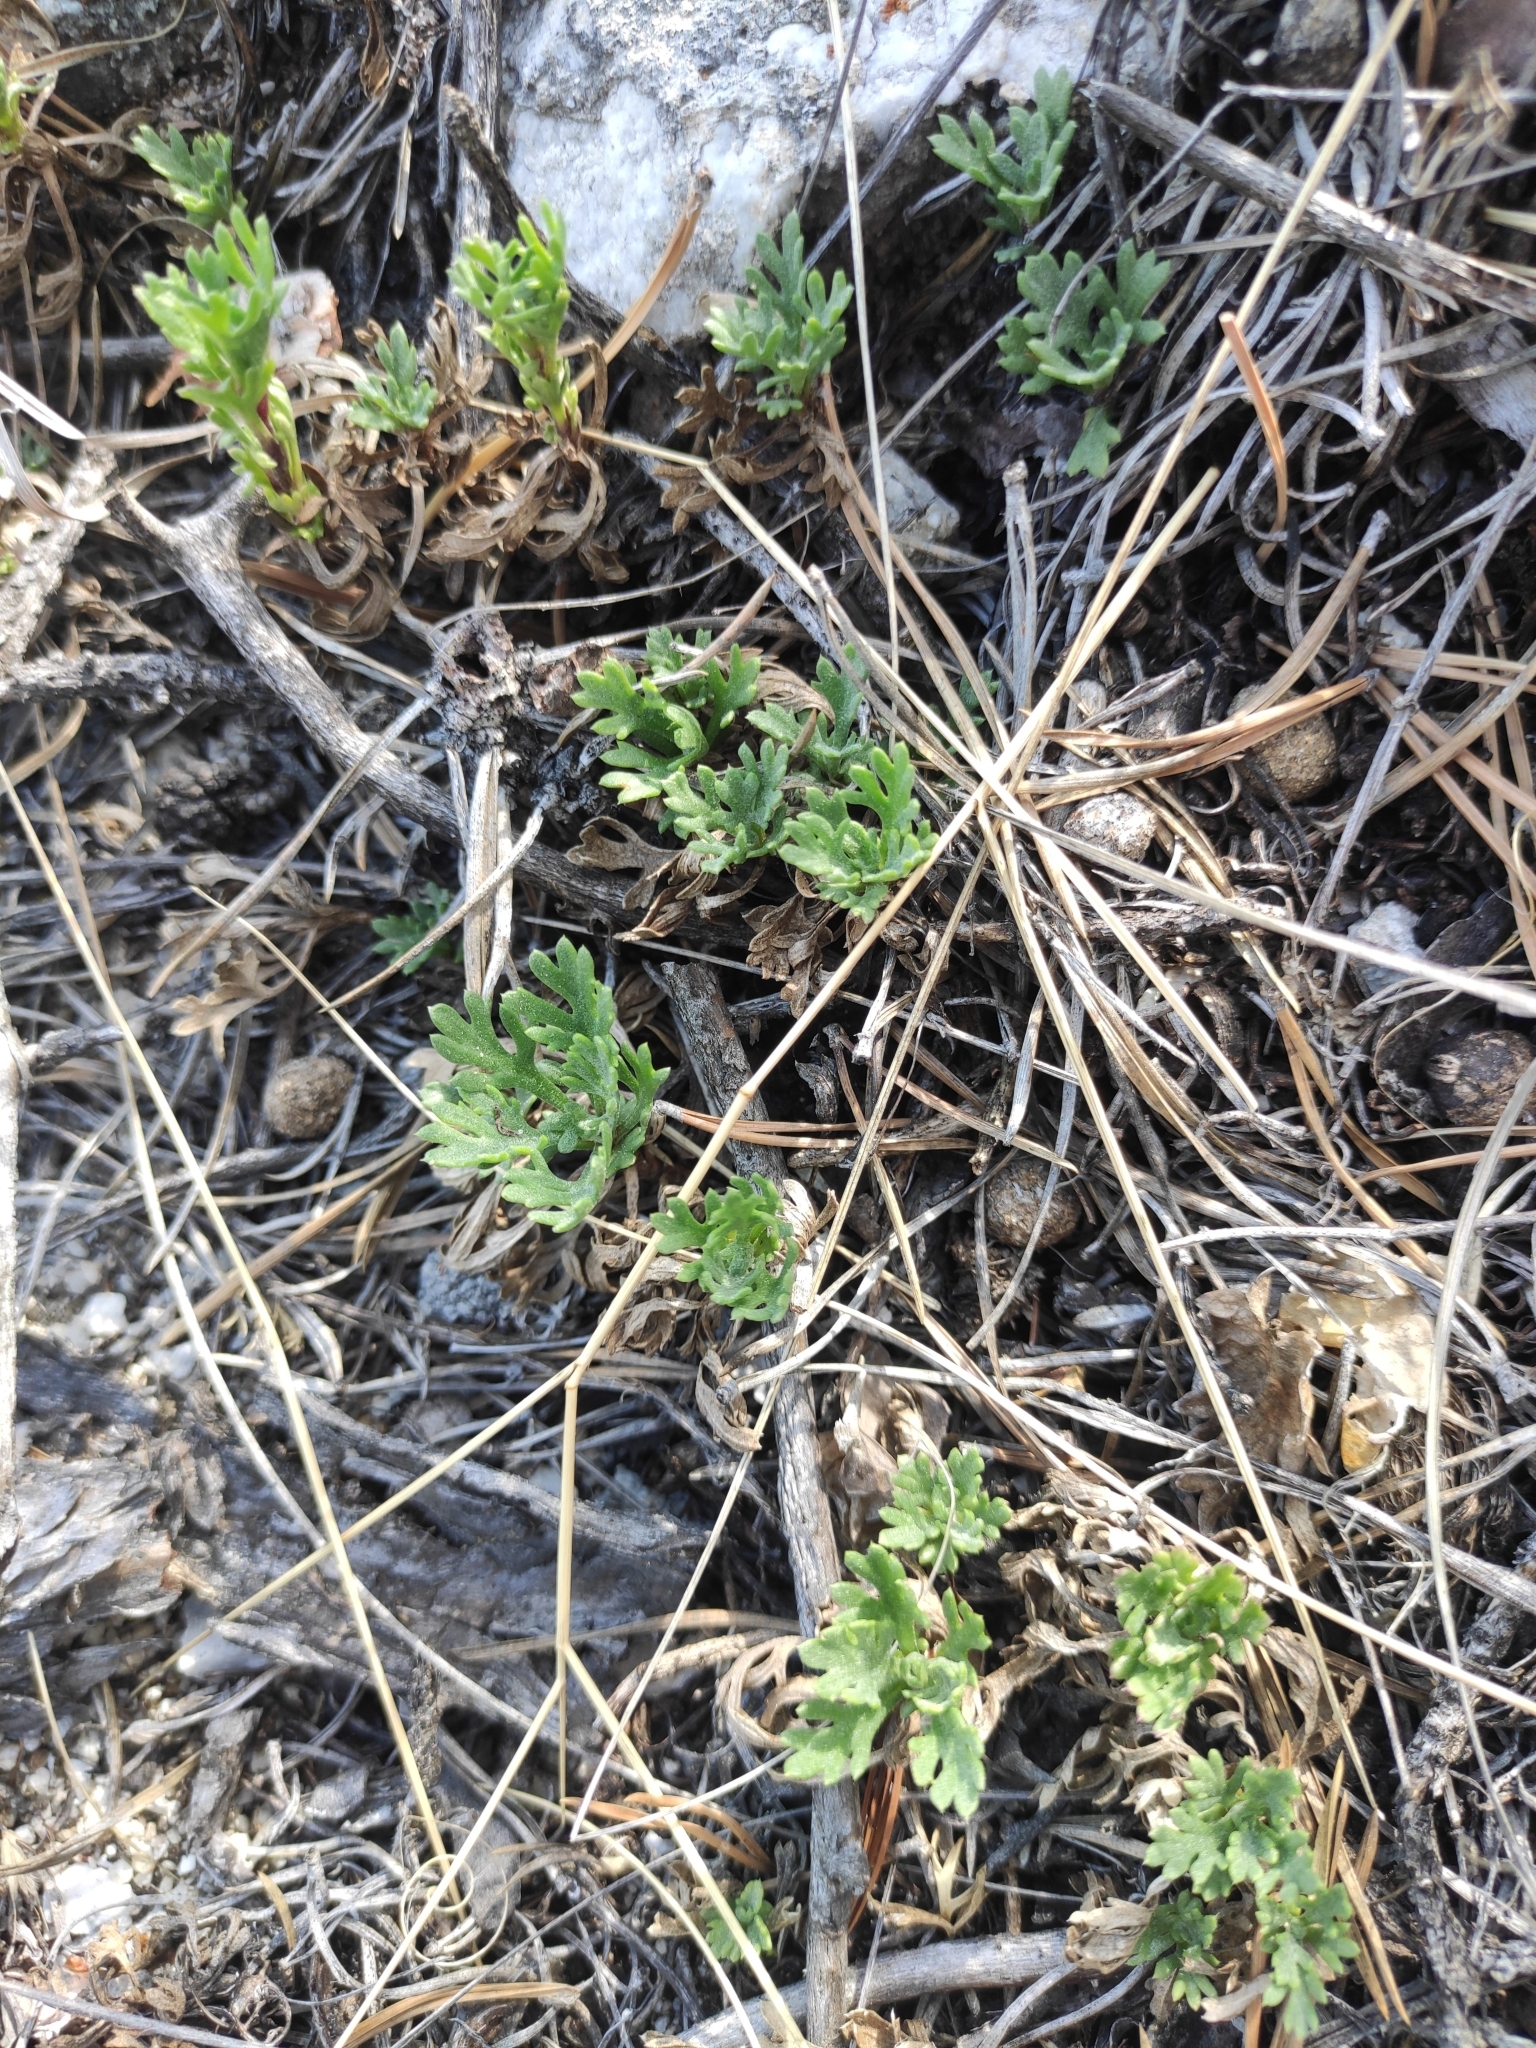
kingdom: Plantae
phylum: Tracheophyta
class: Magnoliopsida
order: Asterales
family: Asteraceae
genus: Chrysanthemum
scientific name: Chrysanthemum zawadzkii
